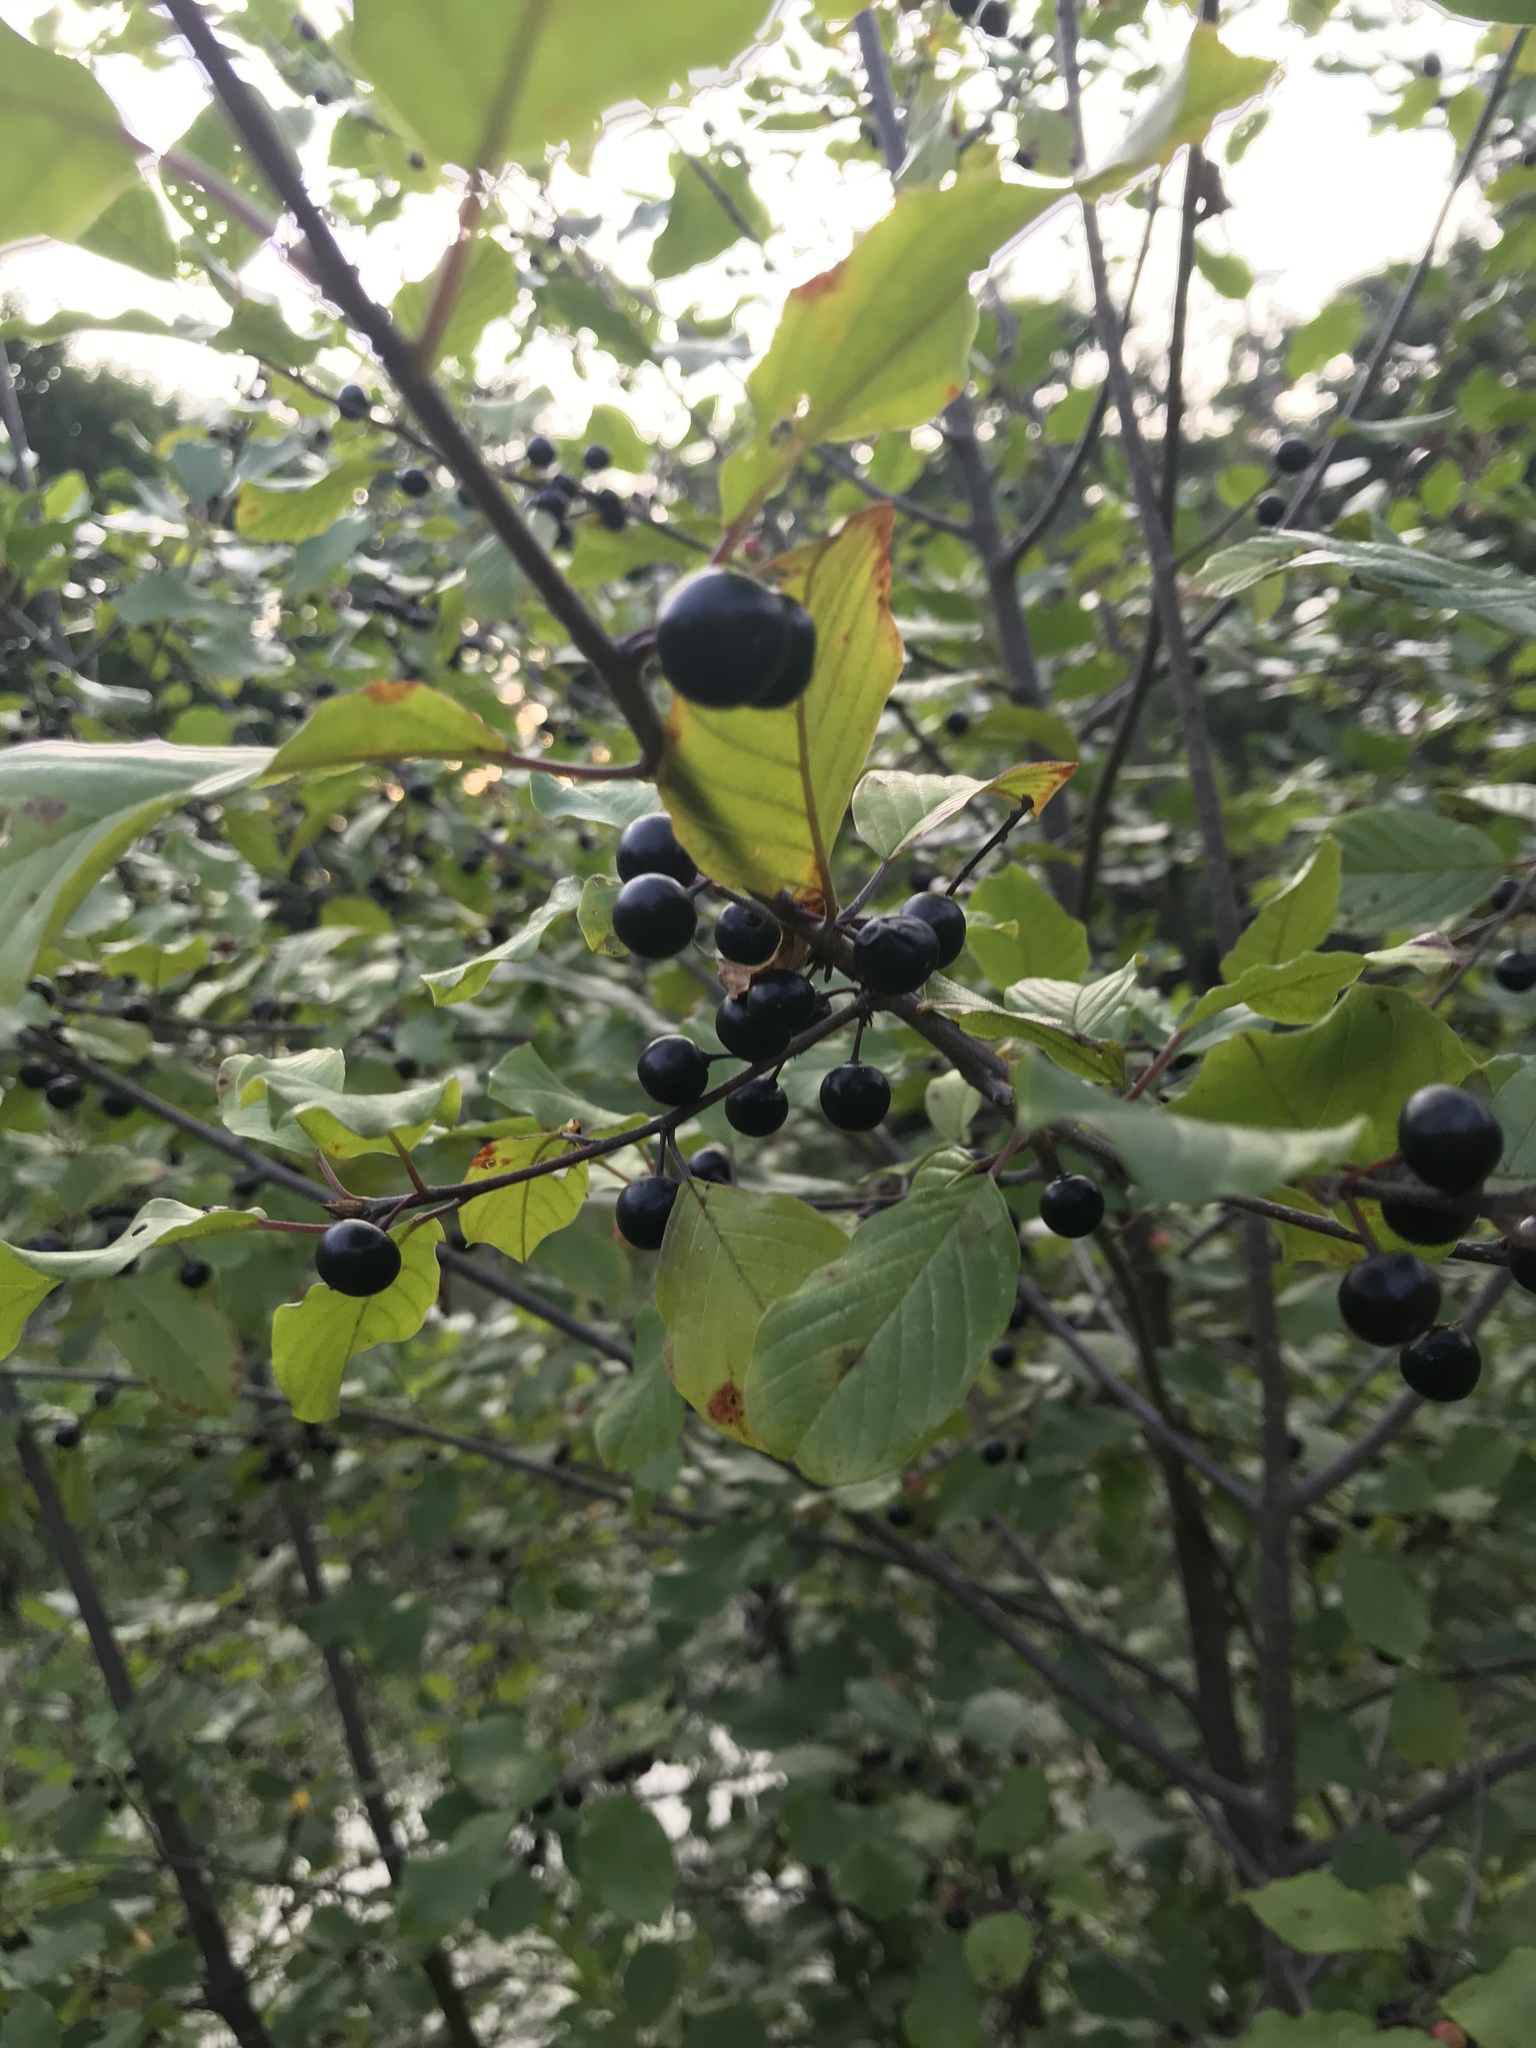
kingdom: Plantae
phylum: Tracheophyta
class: Magnoliopsida
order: Rosales
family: Rhamnaceae
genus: Frangula
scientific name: Frangula alnus
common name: Alder buckthorn
